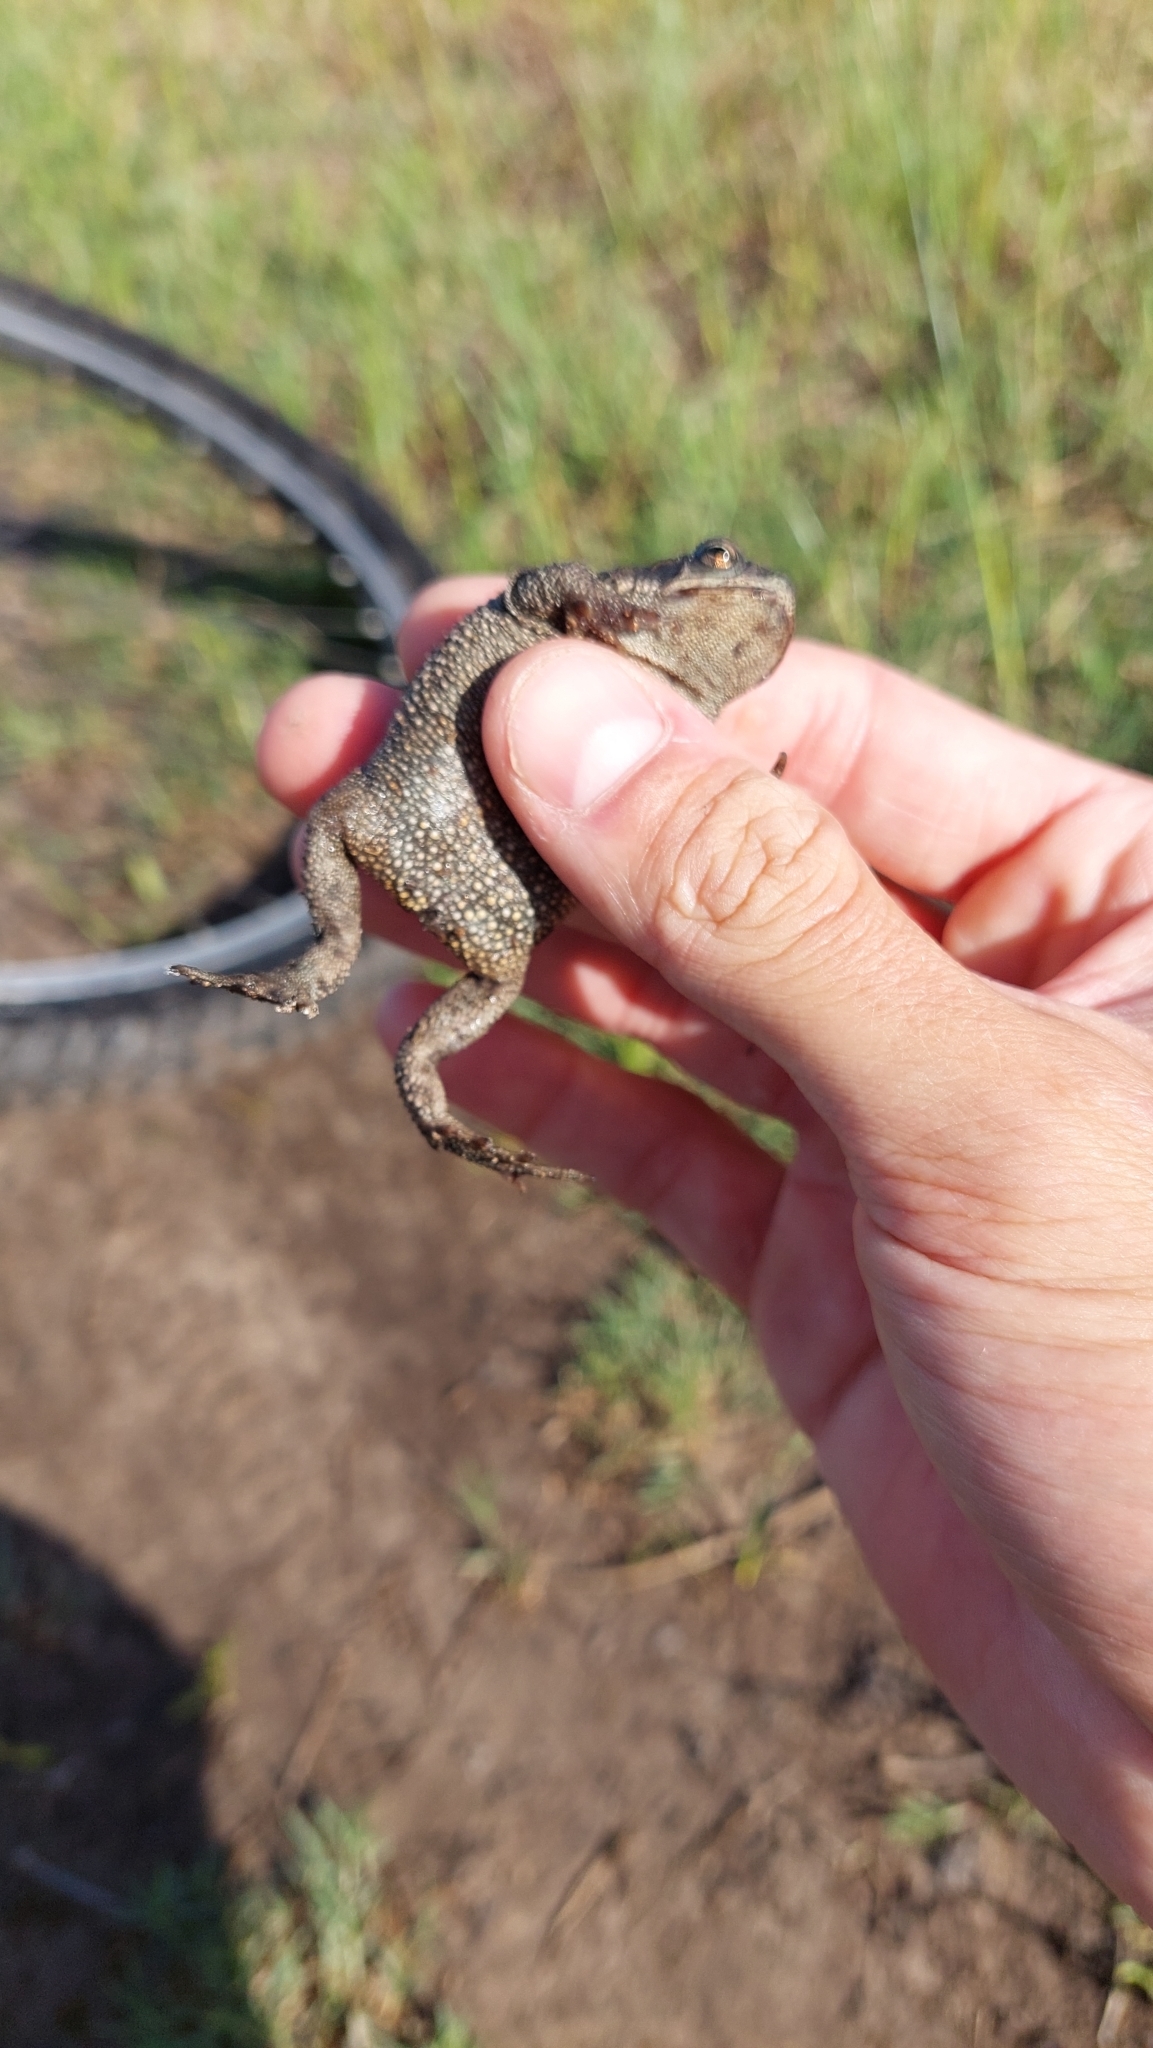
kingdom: Animalia
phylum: Chordata
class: Amphibia
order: Anura
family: Bufonidae
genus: Rhinella
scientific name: Rhinella dorbignyi
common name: D´orbigny’s toad
